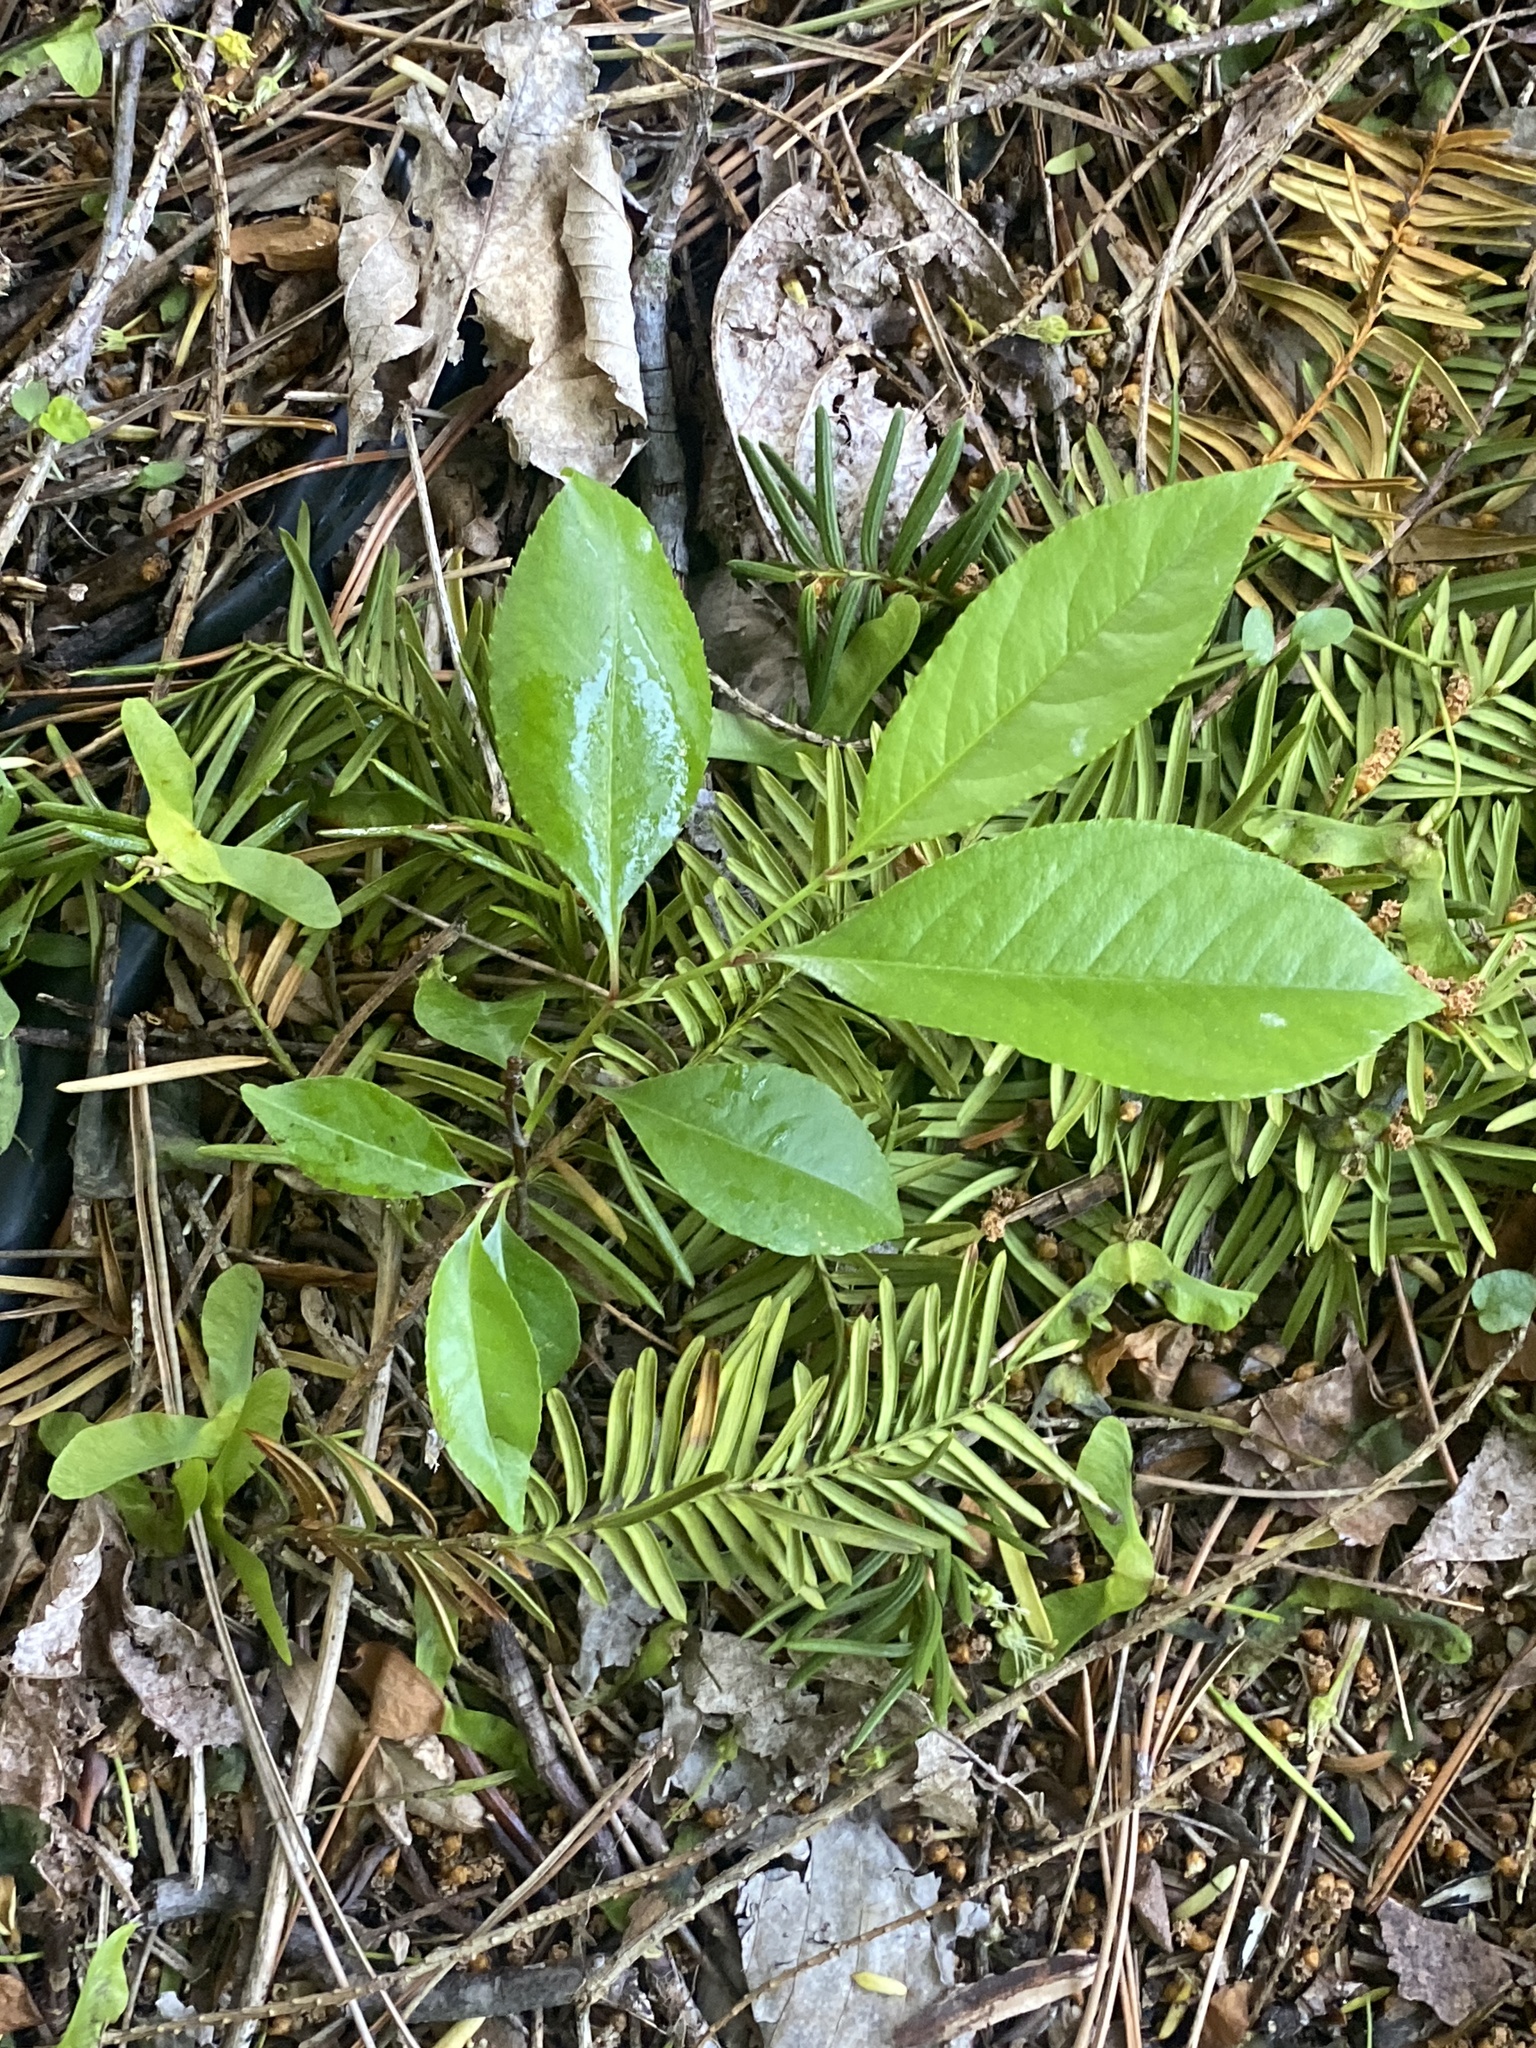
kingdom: Plantae
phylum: Tracheophyta
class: Magnoliopsida
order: Rosales
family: Rosaceae
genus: Prunus
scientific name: Prunus serotina
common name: Black cherry
